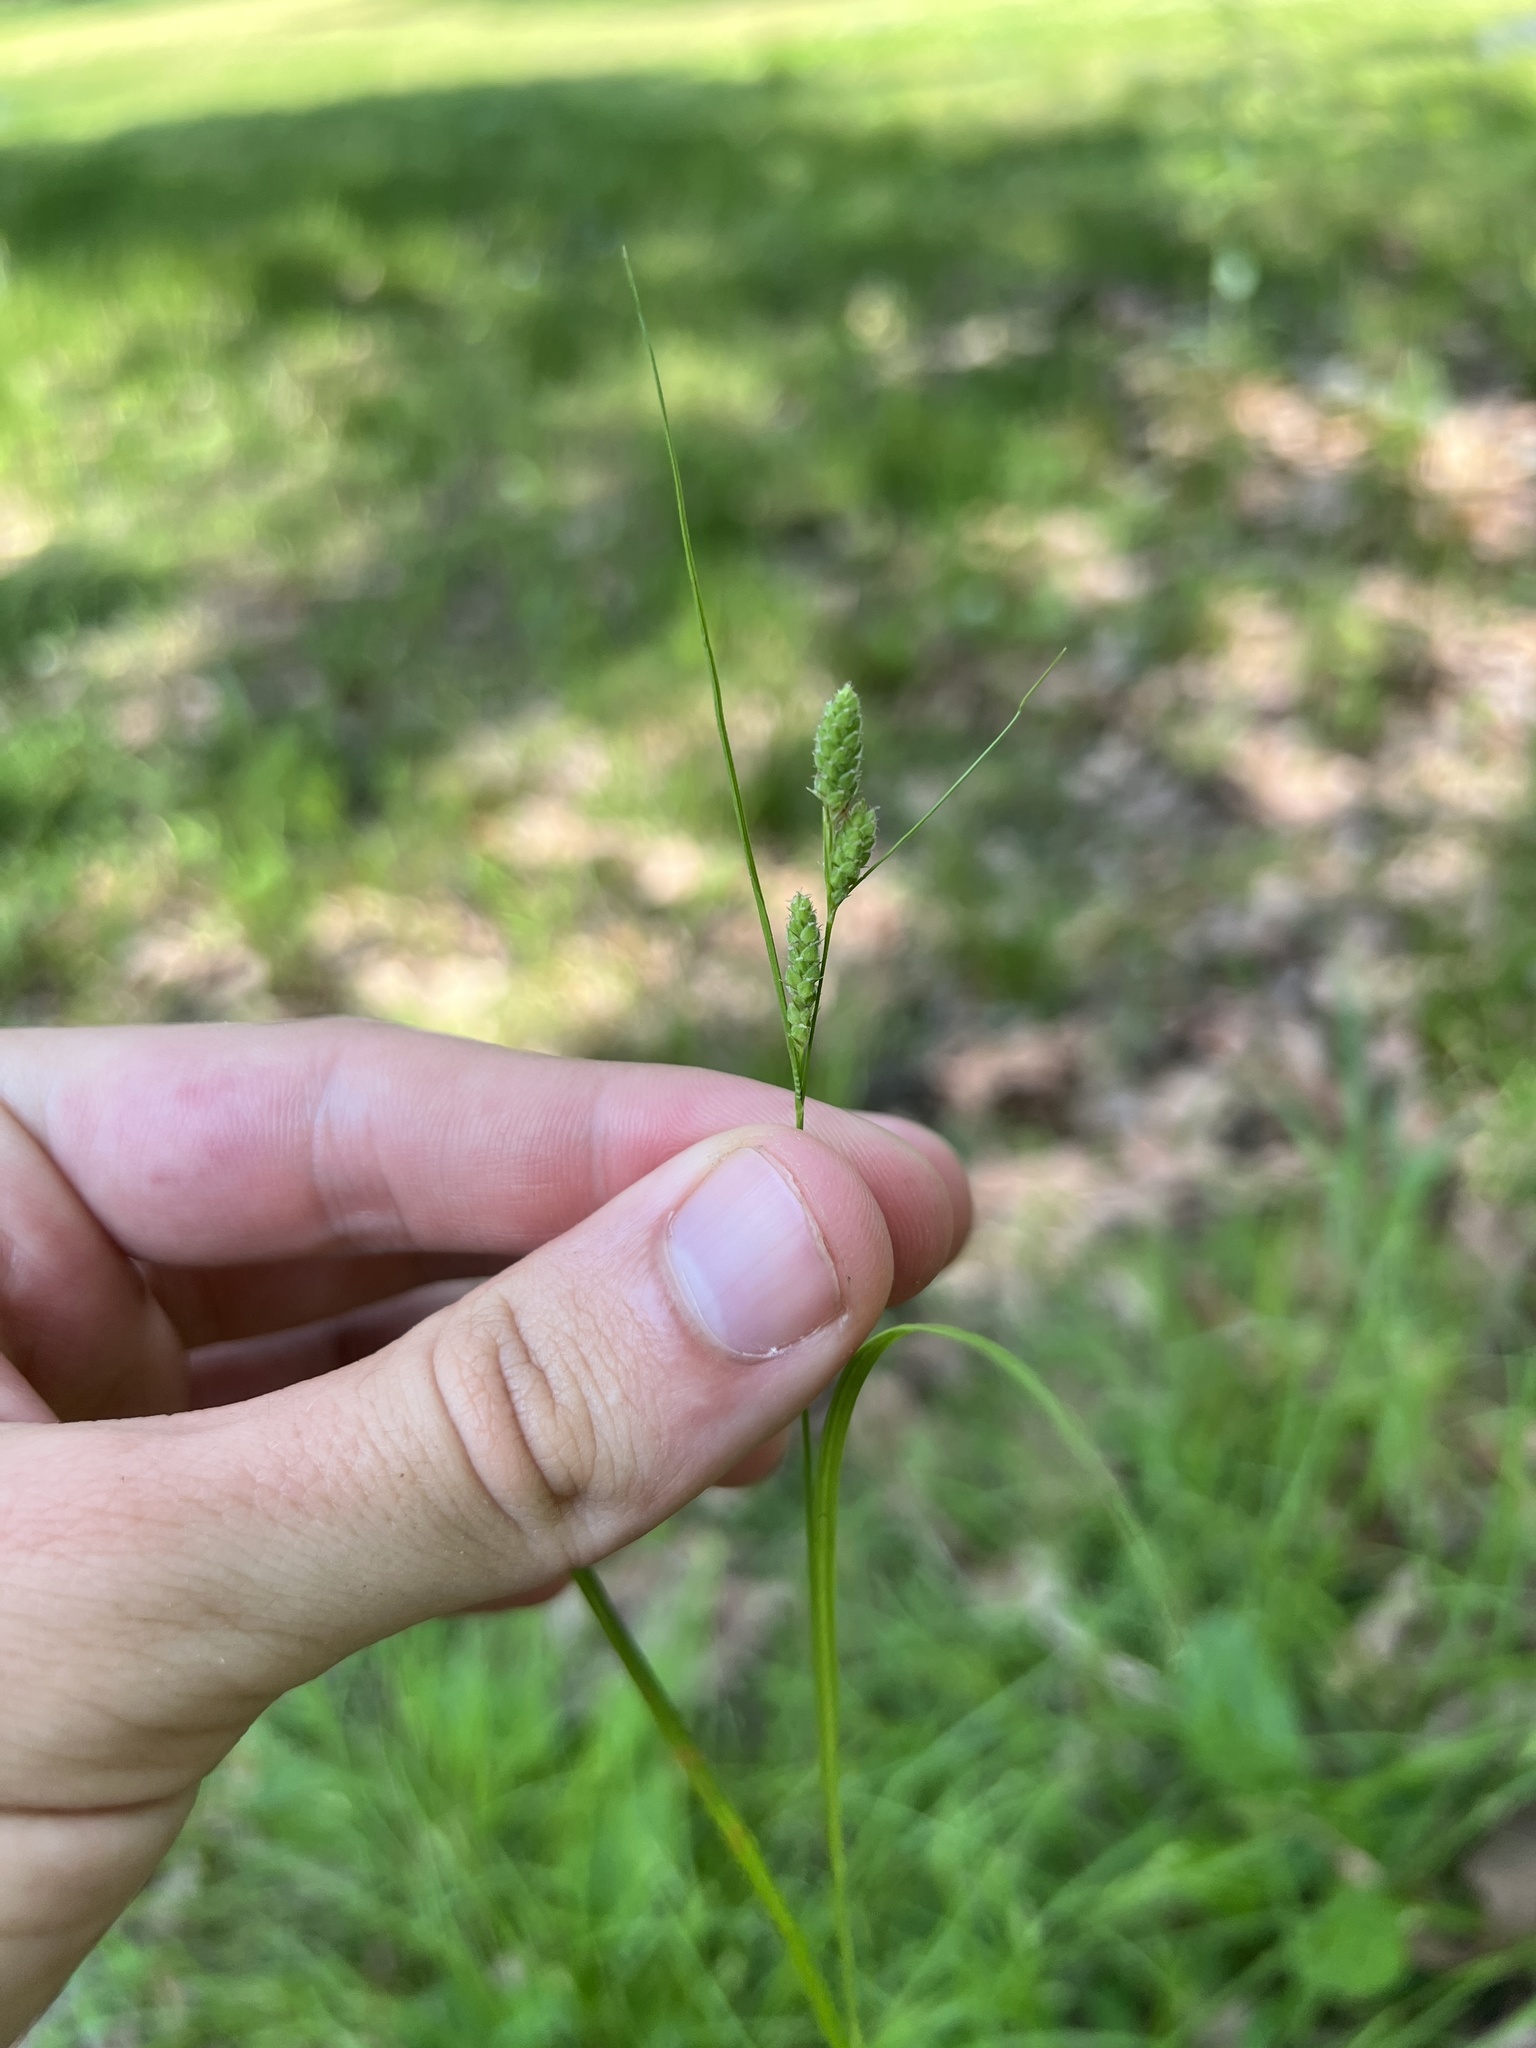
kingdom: Plantae
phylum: Tracheophyta
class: Liliopsida
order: Poales
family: Cyperaceae
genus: Carex
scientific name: Carex swanii
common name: Downy green sedge
